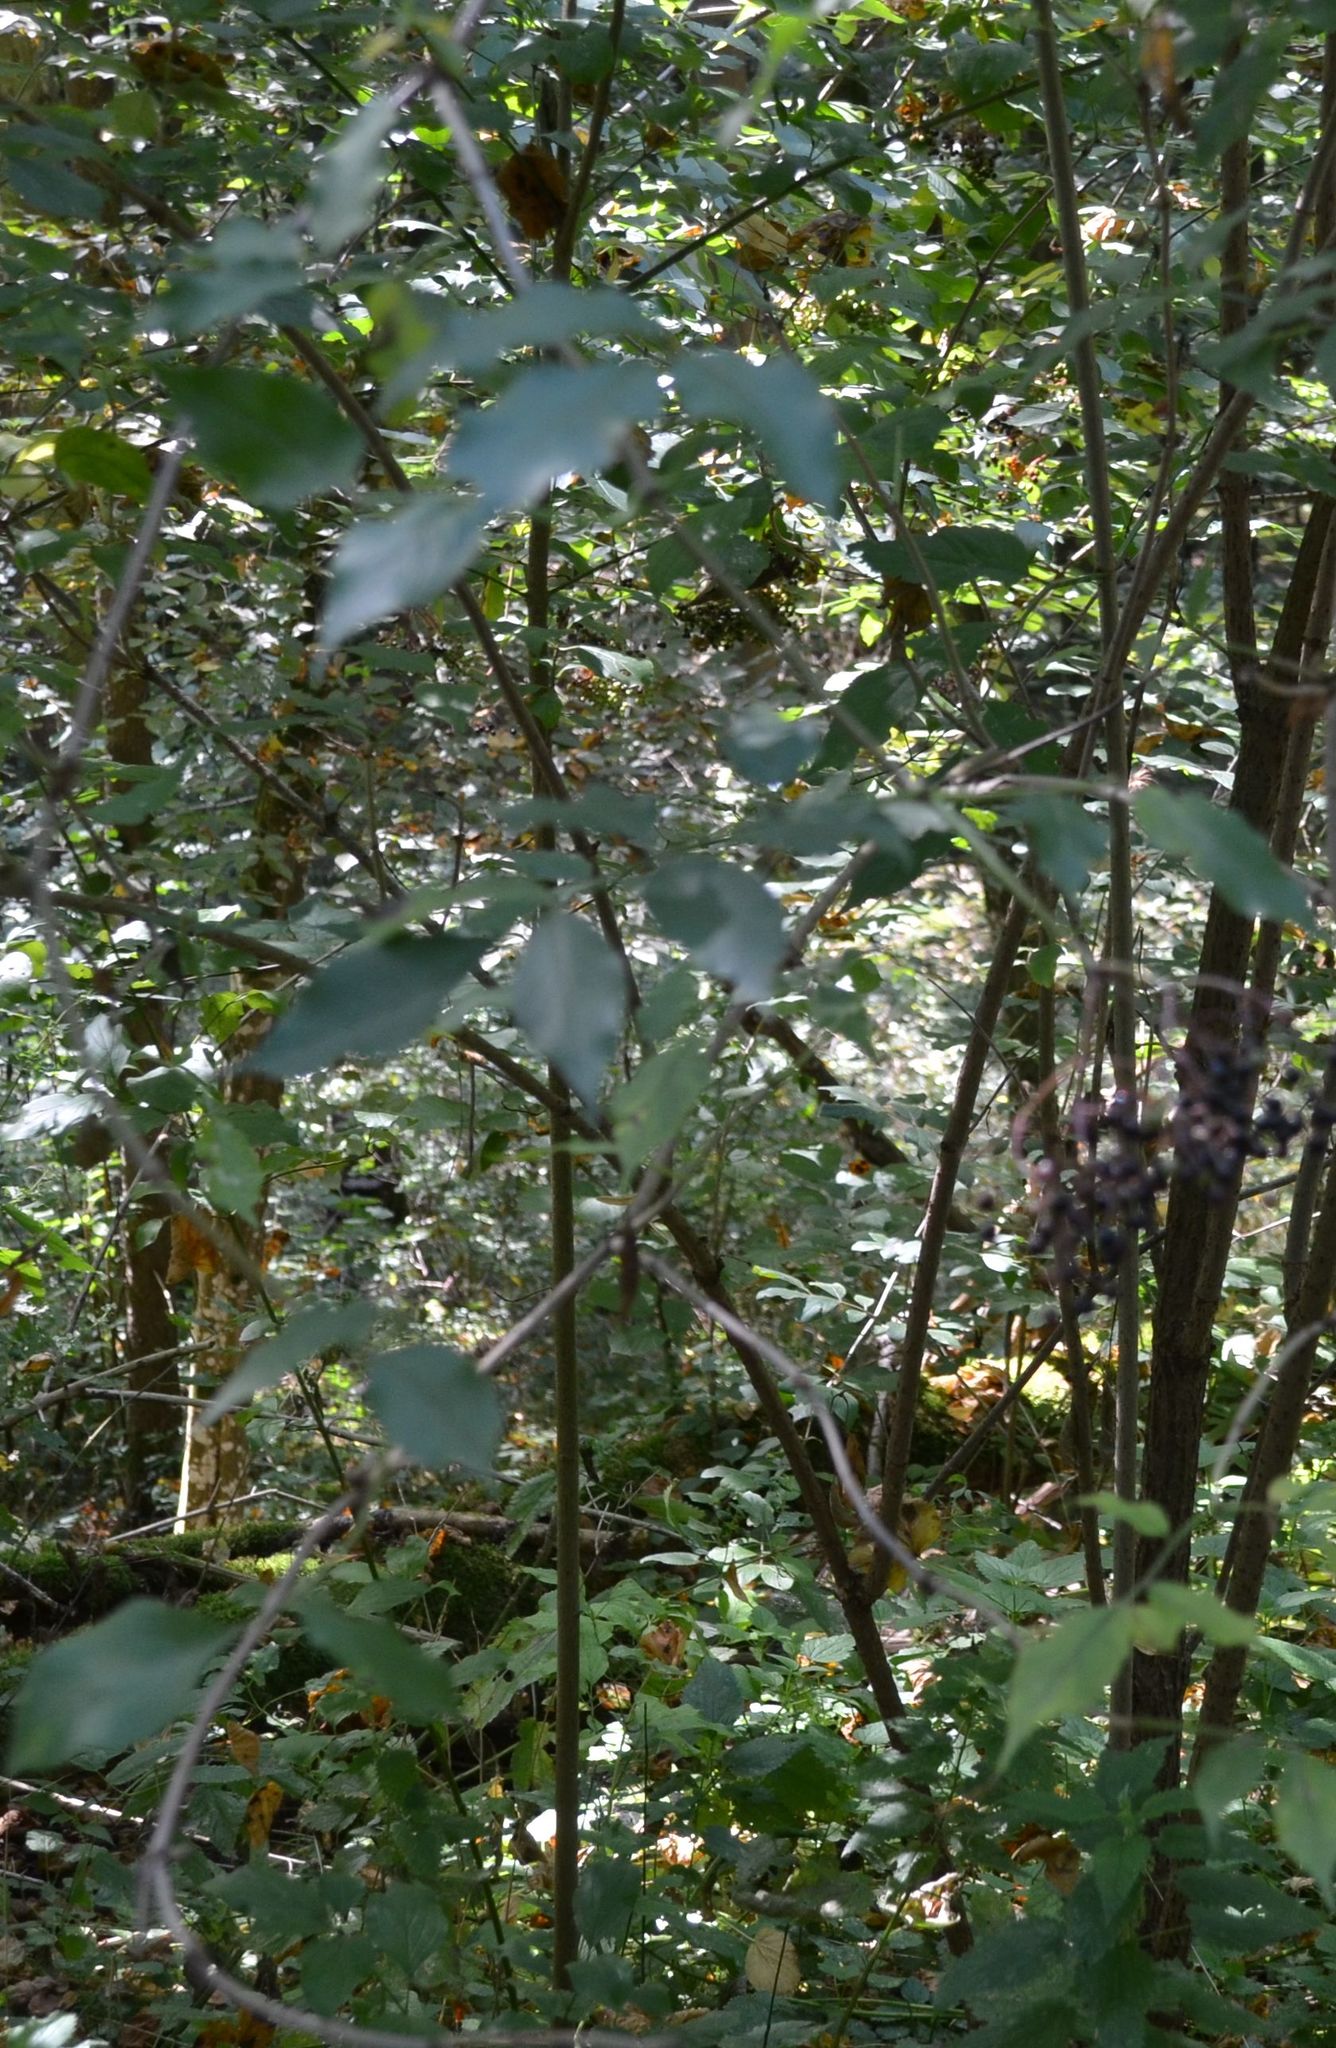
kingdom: Plantae
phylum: Tracheophyta
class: Magnoliopsida
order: Dipsacales
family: Viburnaceae
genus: Sambucus
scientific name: Sambucus nigra
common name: Elder
